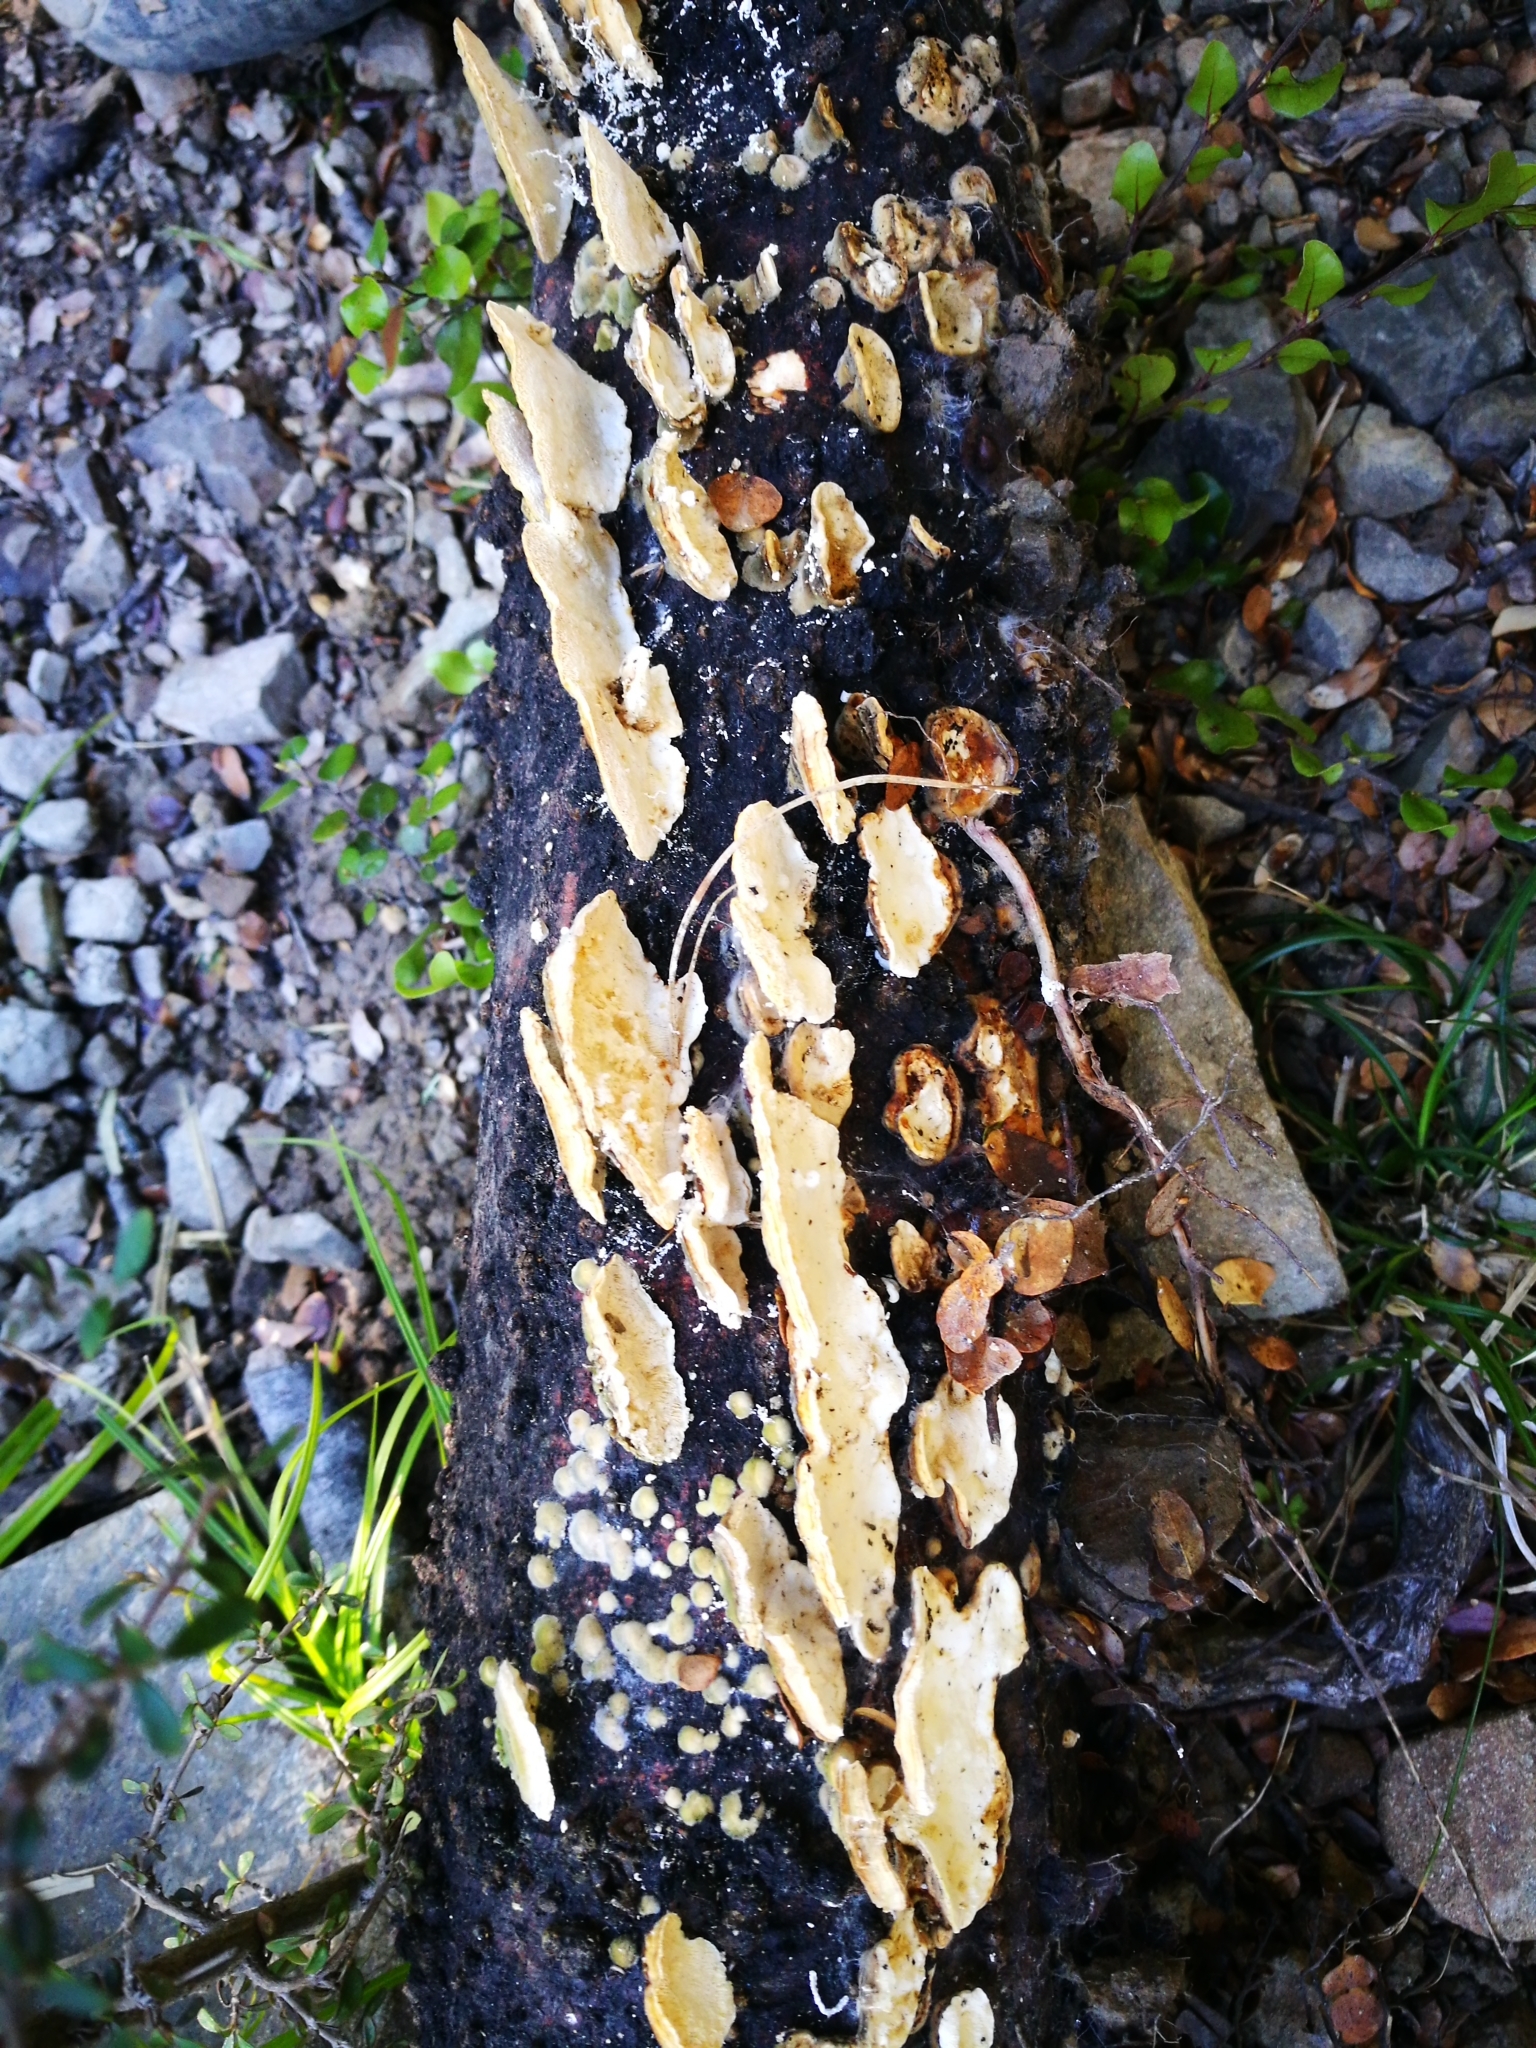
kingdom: Fungi
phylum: Basidiomycota
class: Agaricomycetes
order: Polyporales
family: Polyporaceae
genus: Trametes
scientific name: Trametes versicolor
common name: Turkeytail
